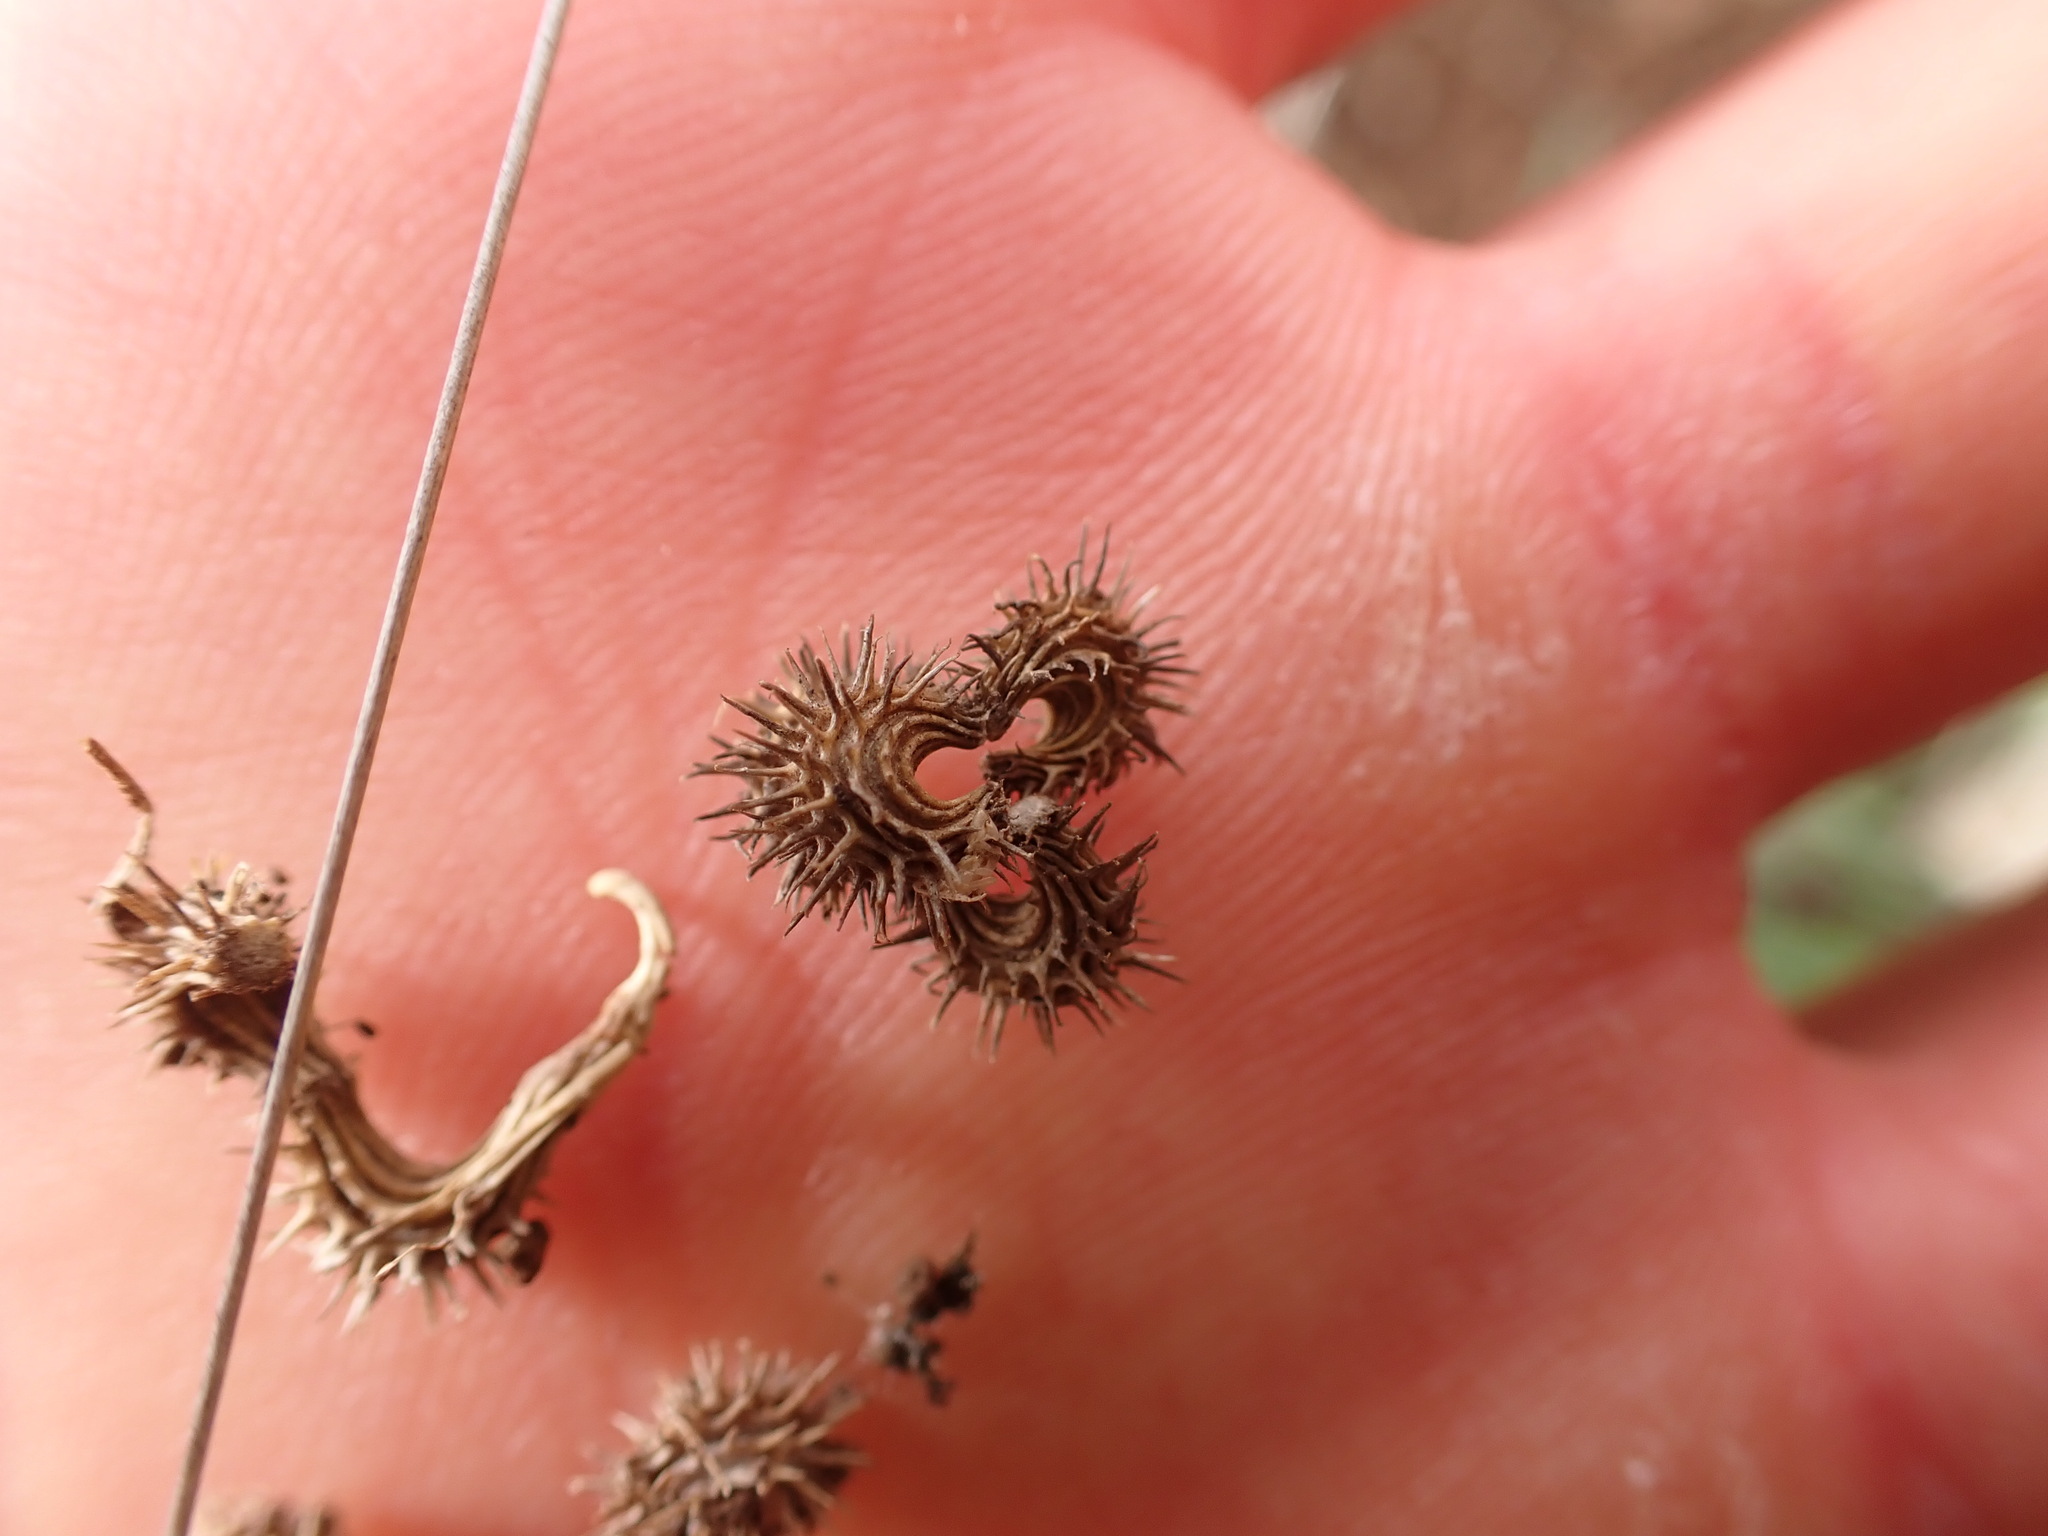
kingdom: Plantae
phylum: Tracheophyta
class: Magnoliopsida
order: Fabales
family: Fabaceae
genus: Scorpiurus
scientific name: Scorpiurus muricatus
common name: Caterpillar-plant
